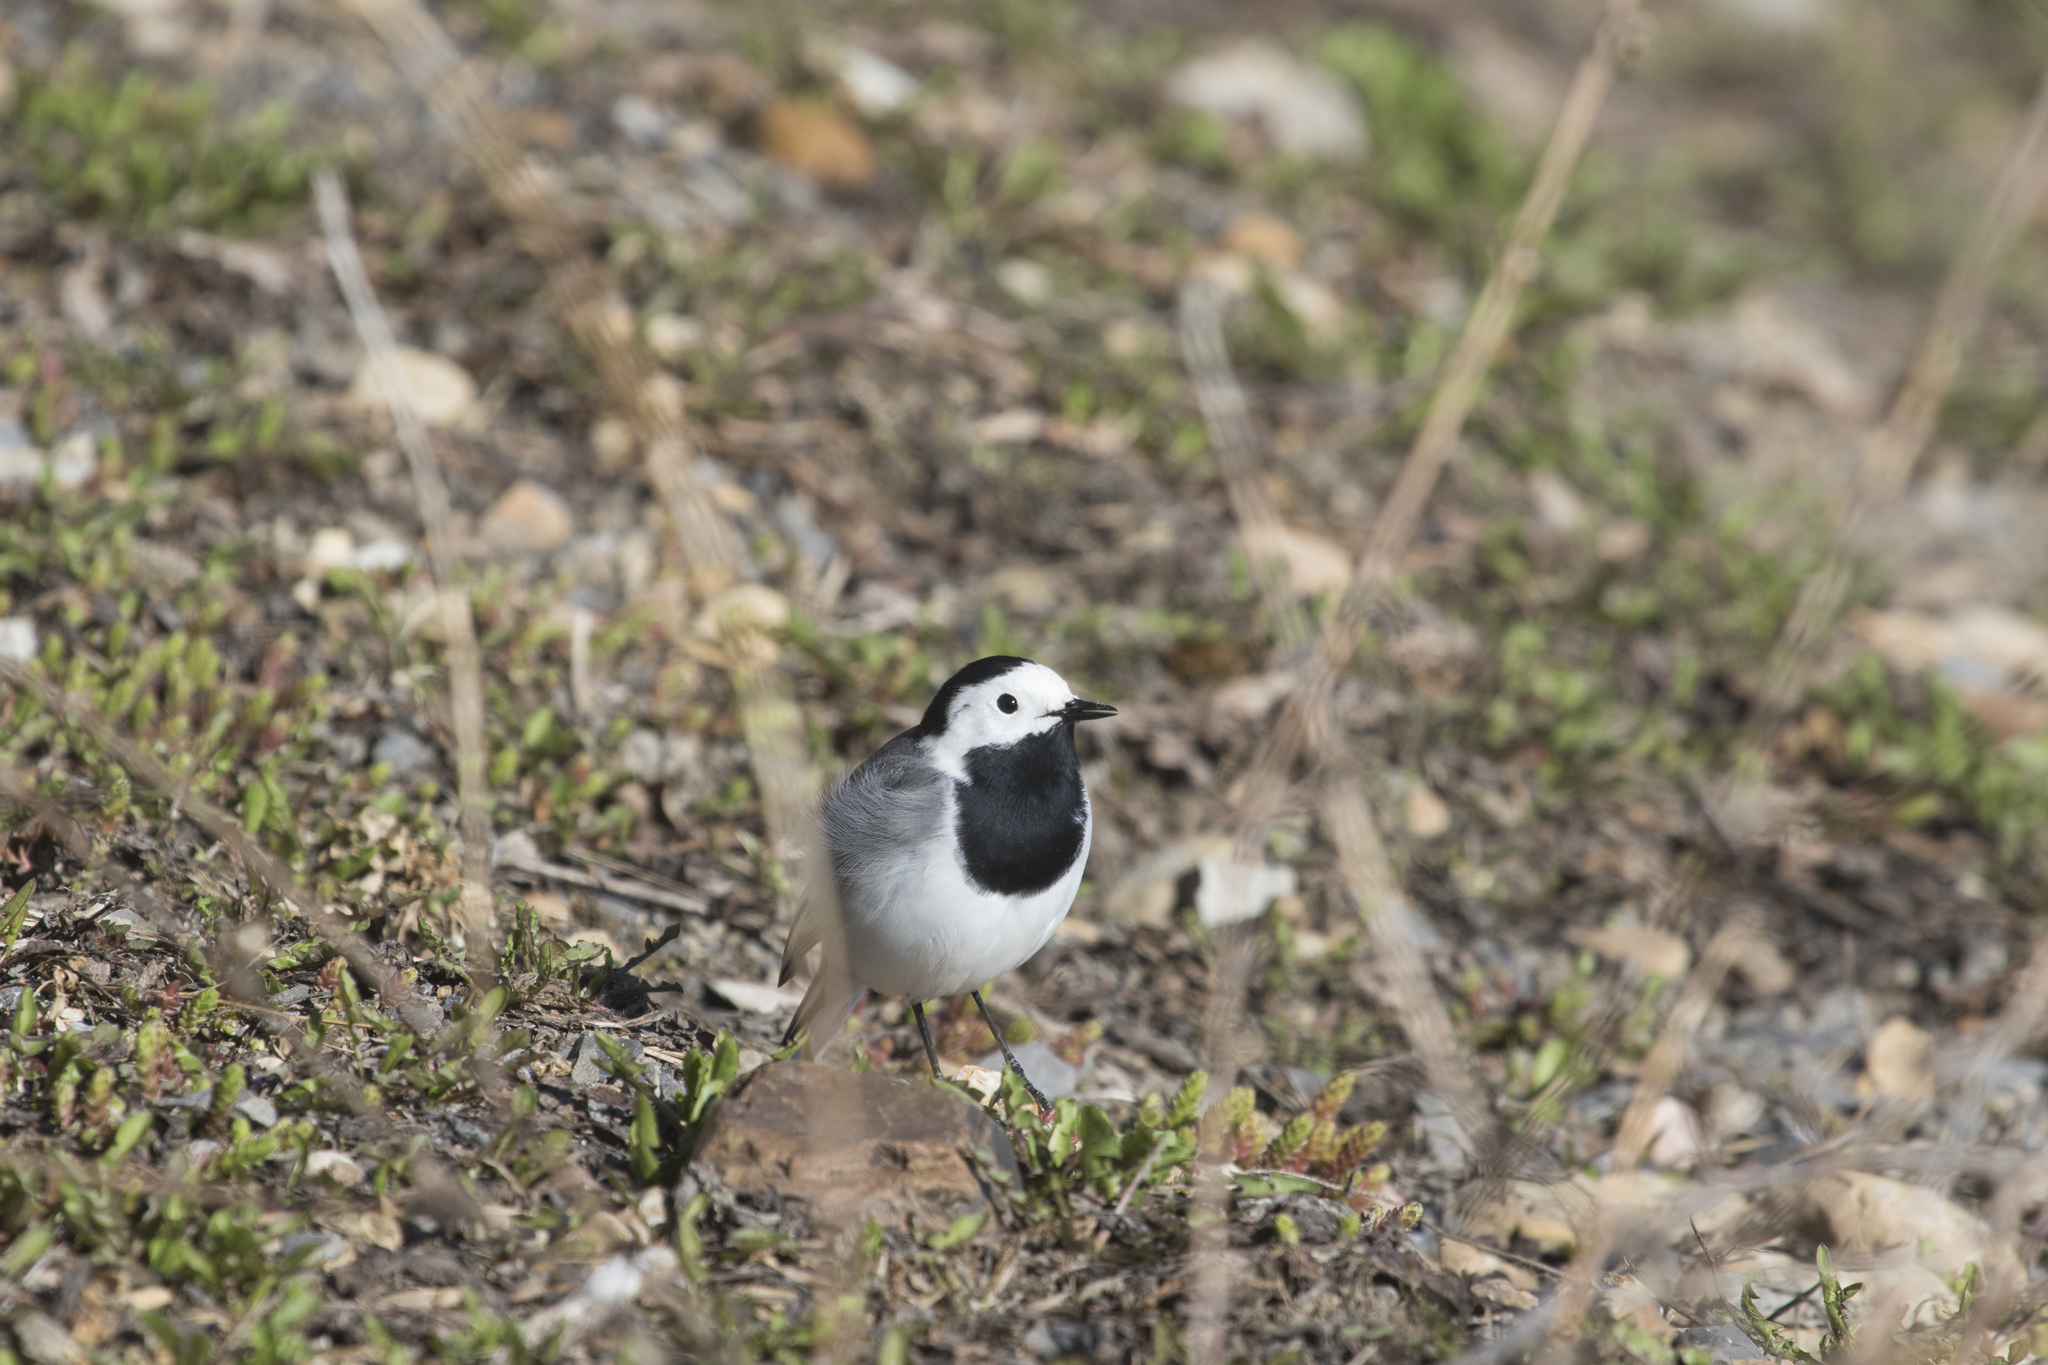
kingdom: Animalia
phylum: Chordata
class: Aves
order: Passeriformes
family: Motacillidae
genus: Motacilla
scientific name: Motacilla alba
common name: White wagtail
